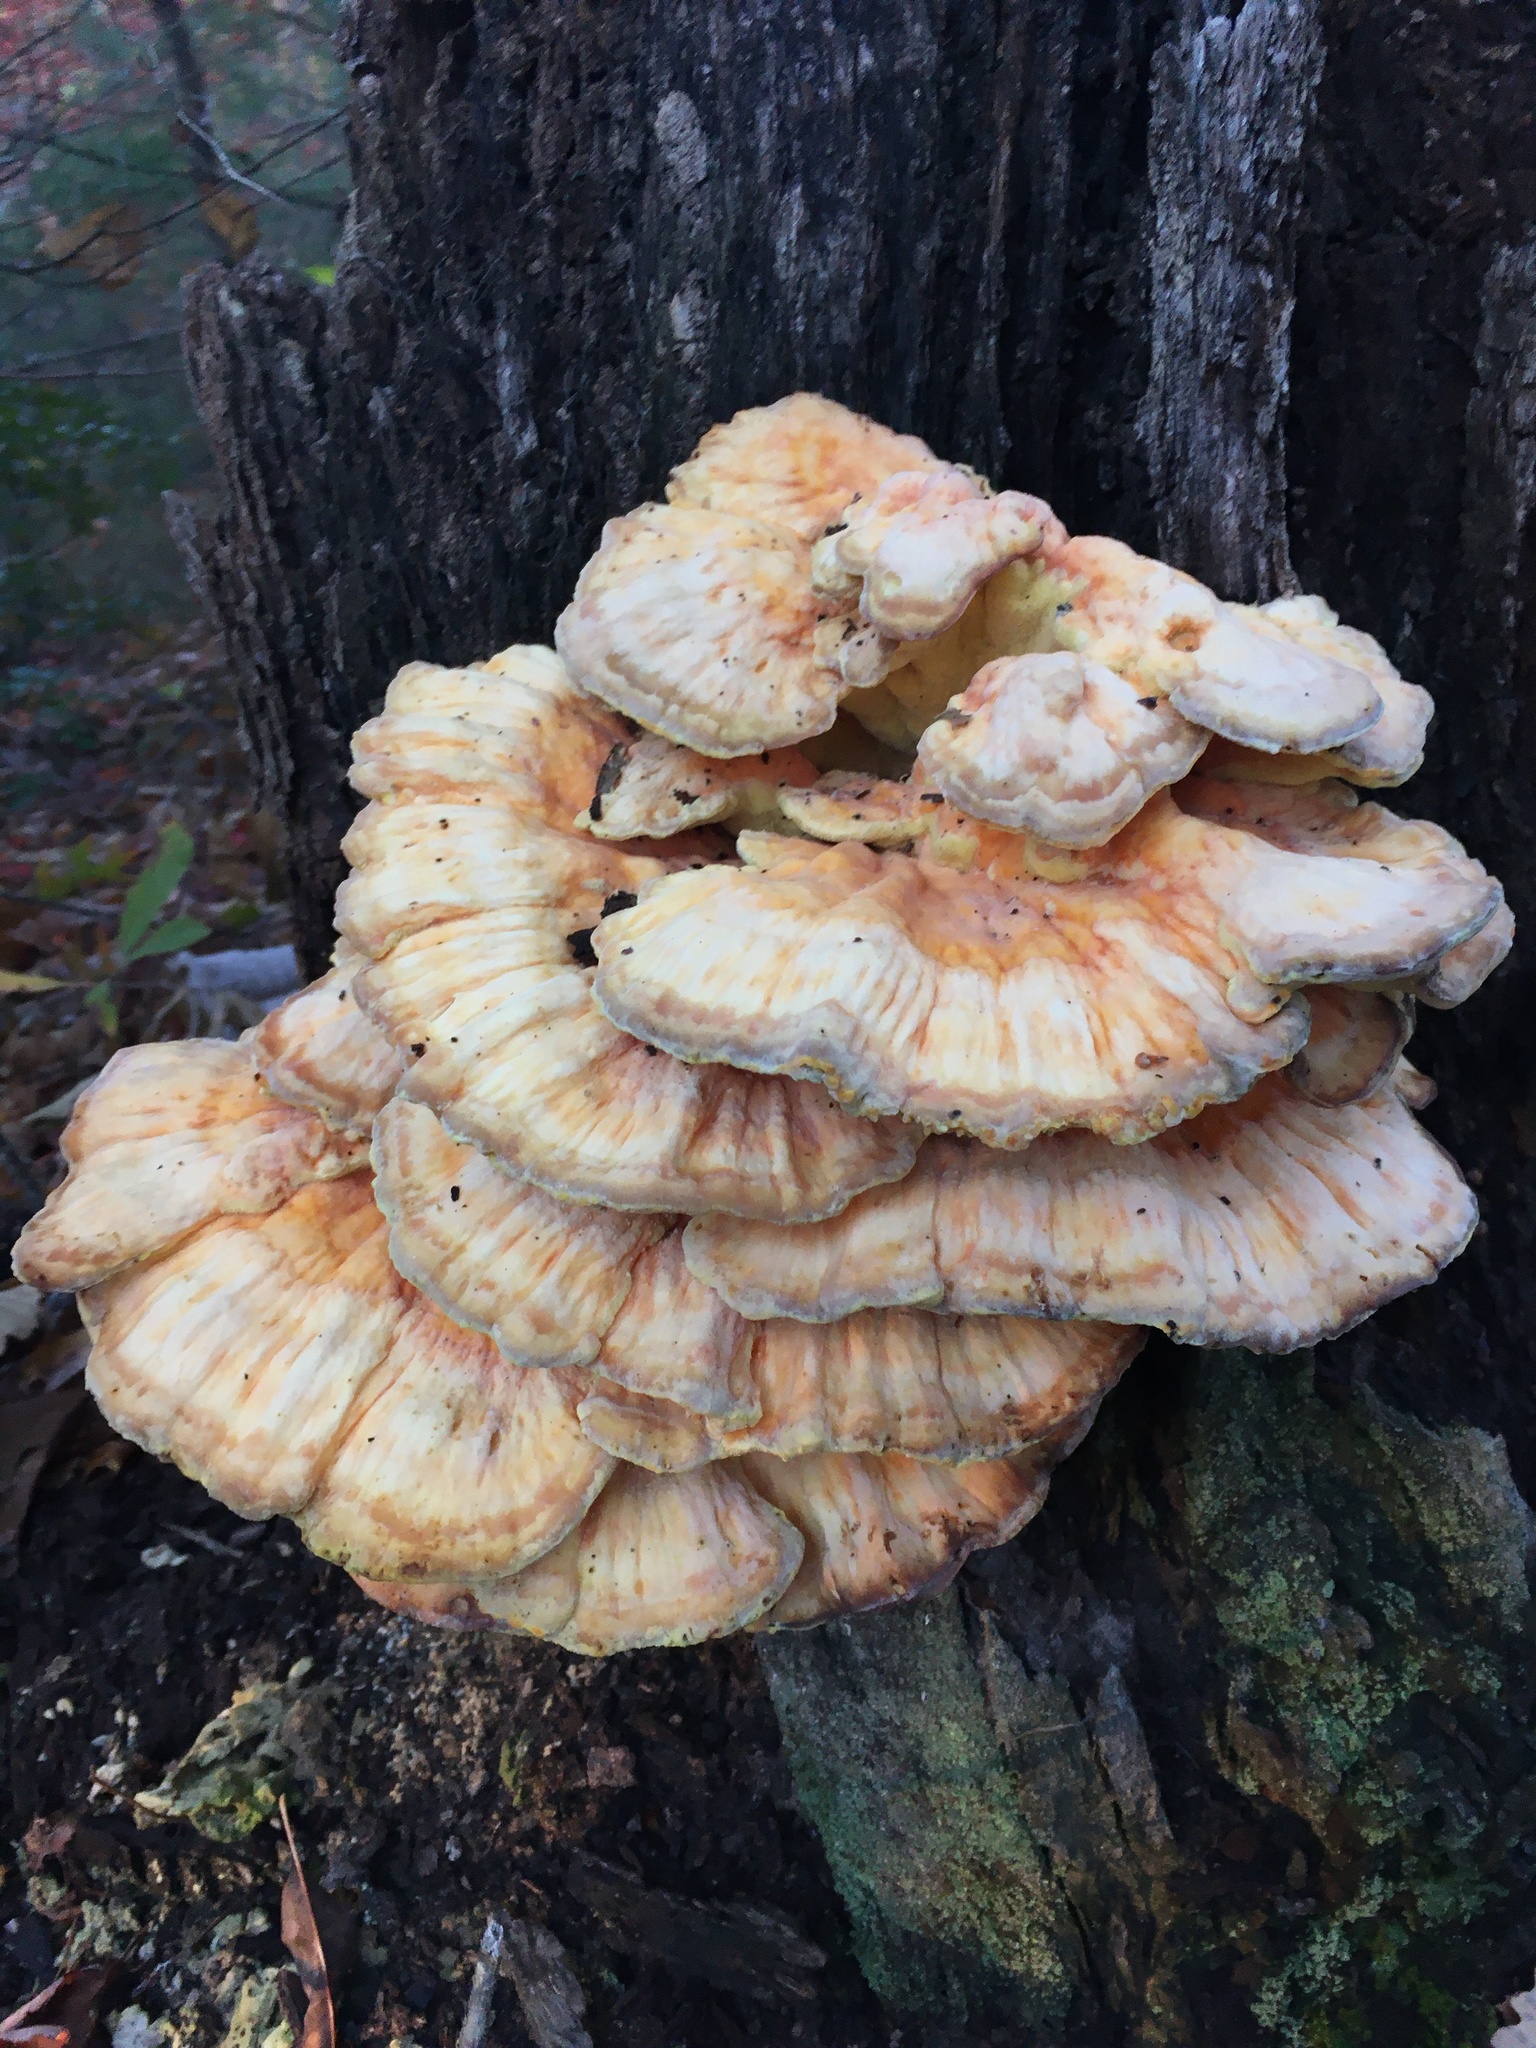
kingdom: Fungi
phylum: Basidiomycota
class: Agaricomycetes
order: Polyporales
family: Laetiporaceae
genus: Laetiporus
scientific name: Laetiporus sulphureus
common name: Chicken of the woods
